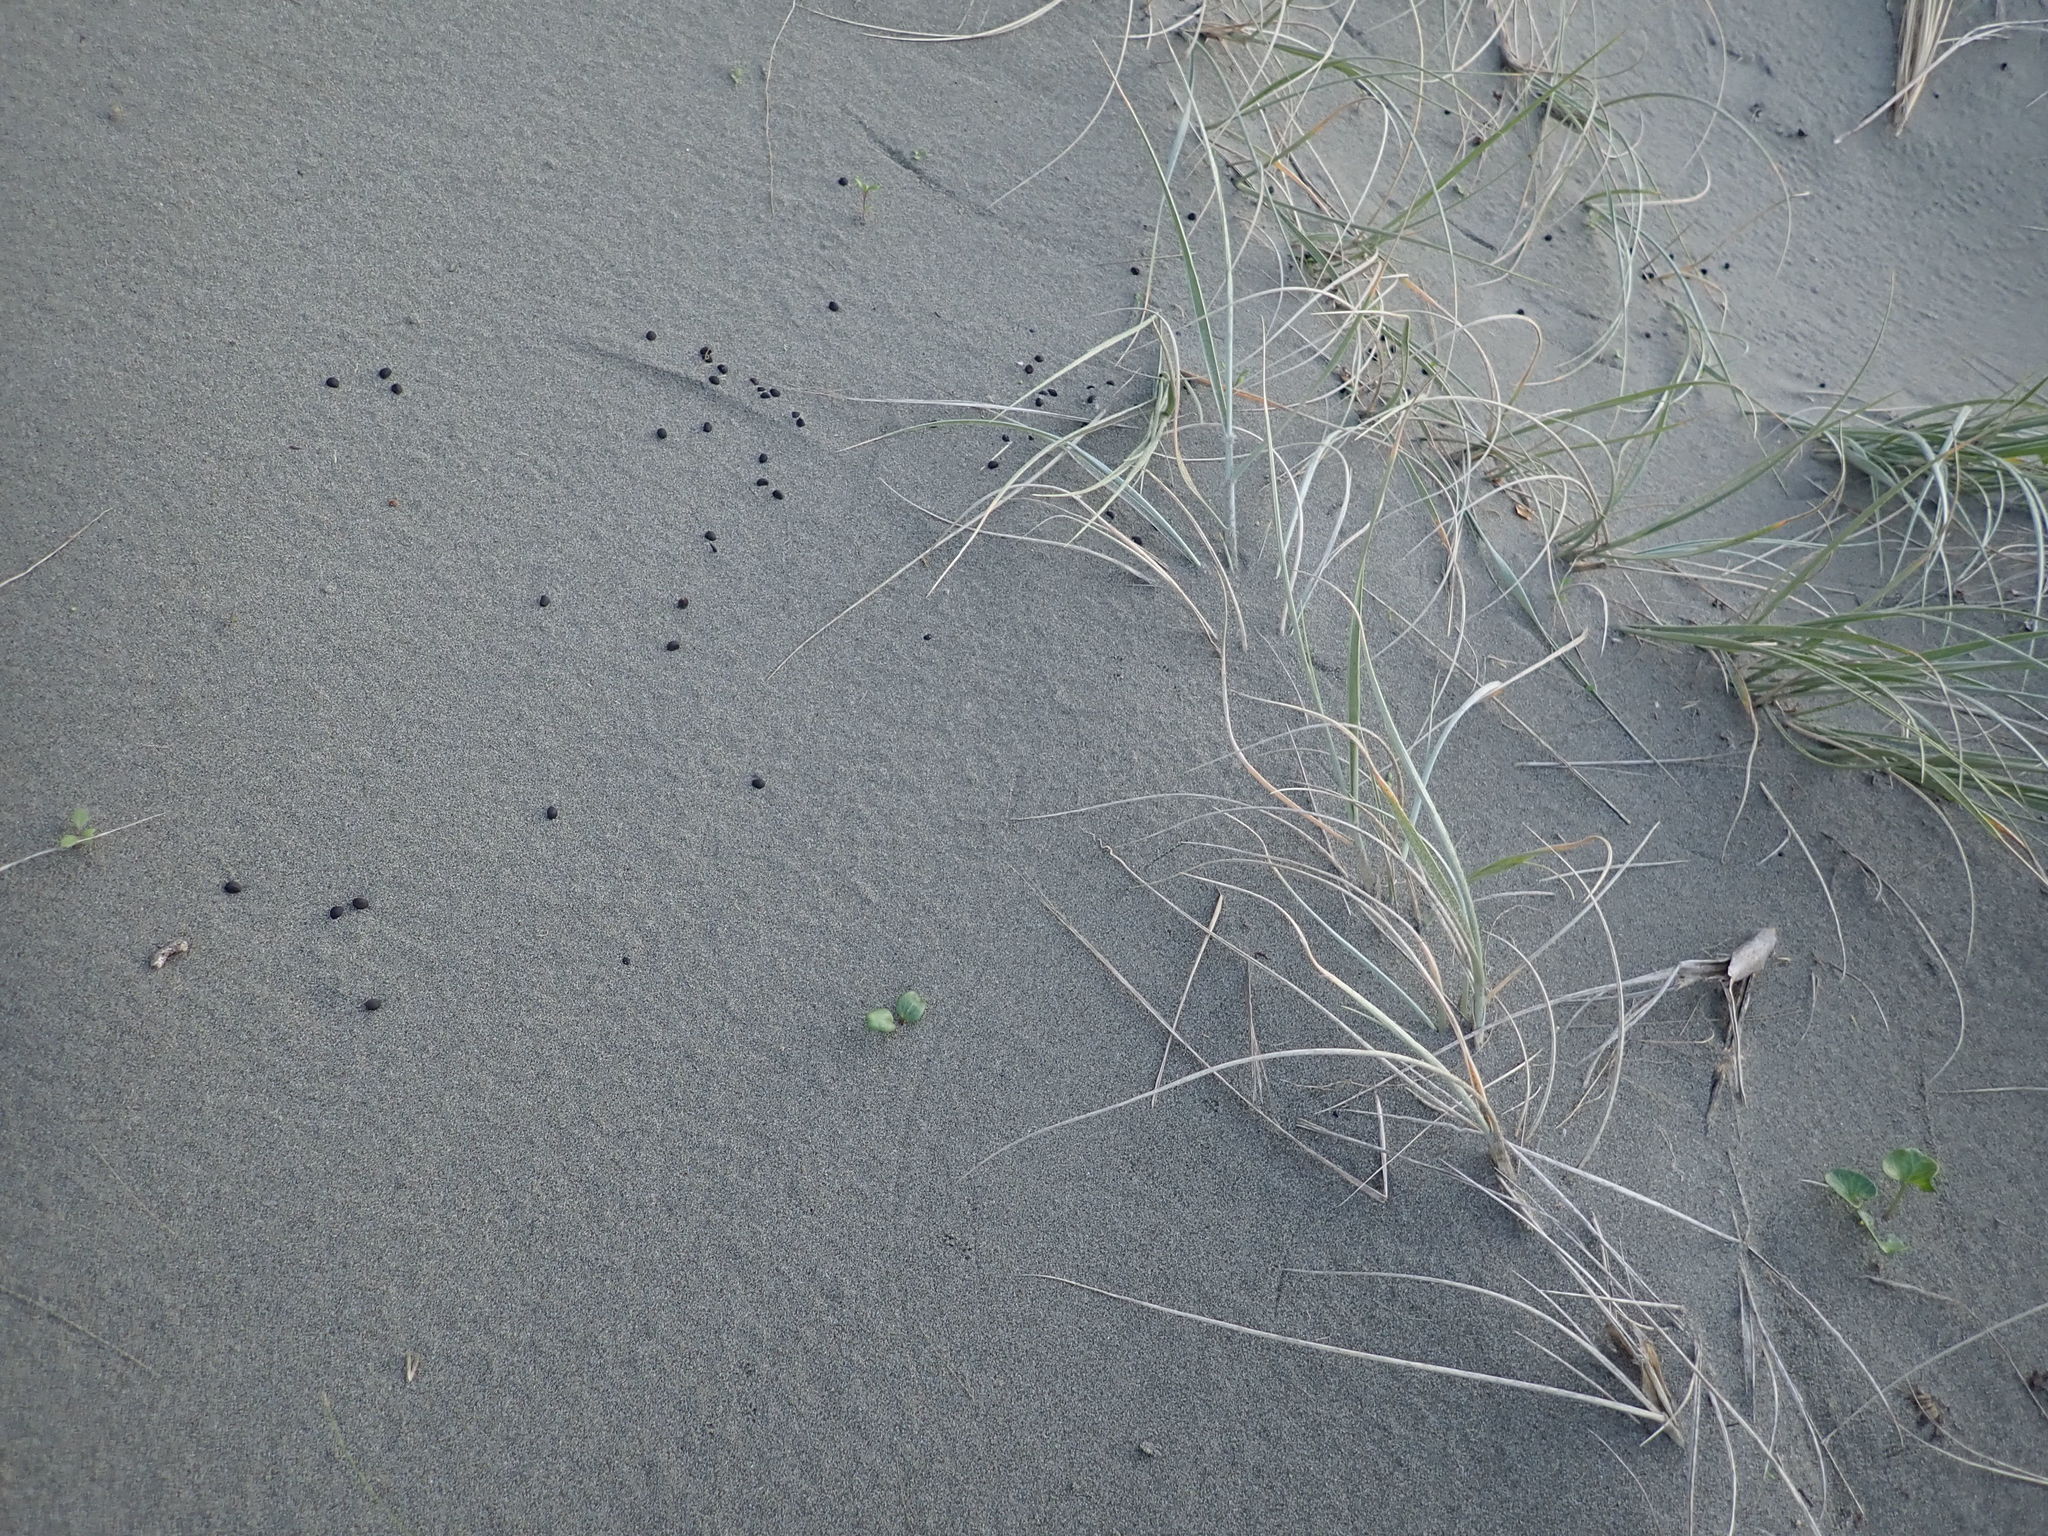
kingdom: Plantae
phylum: Tracheophyta
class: Magnoliopsida
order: Solanales
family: Convolvulaceae
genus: Calystegia
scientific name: Calystegia soldanella
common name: Sea bindweed
